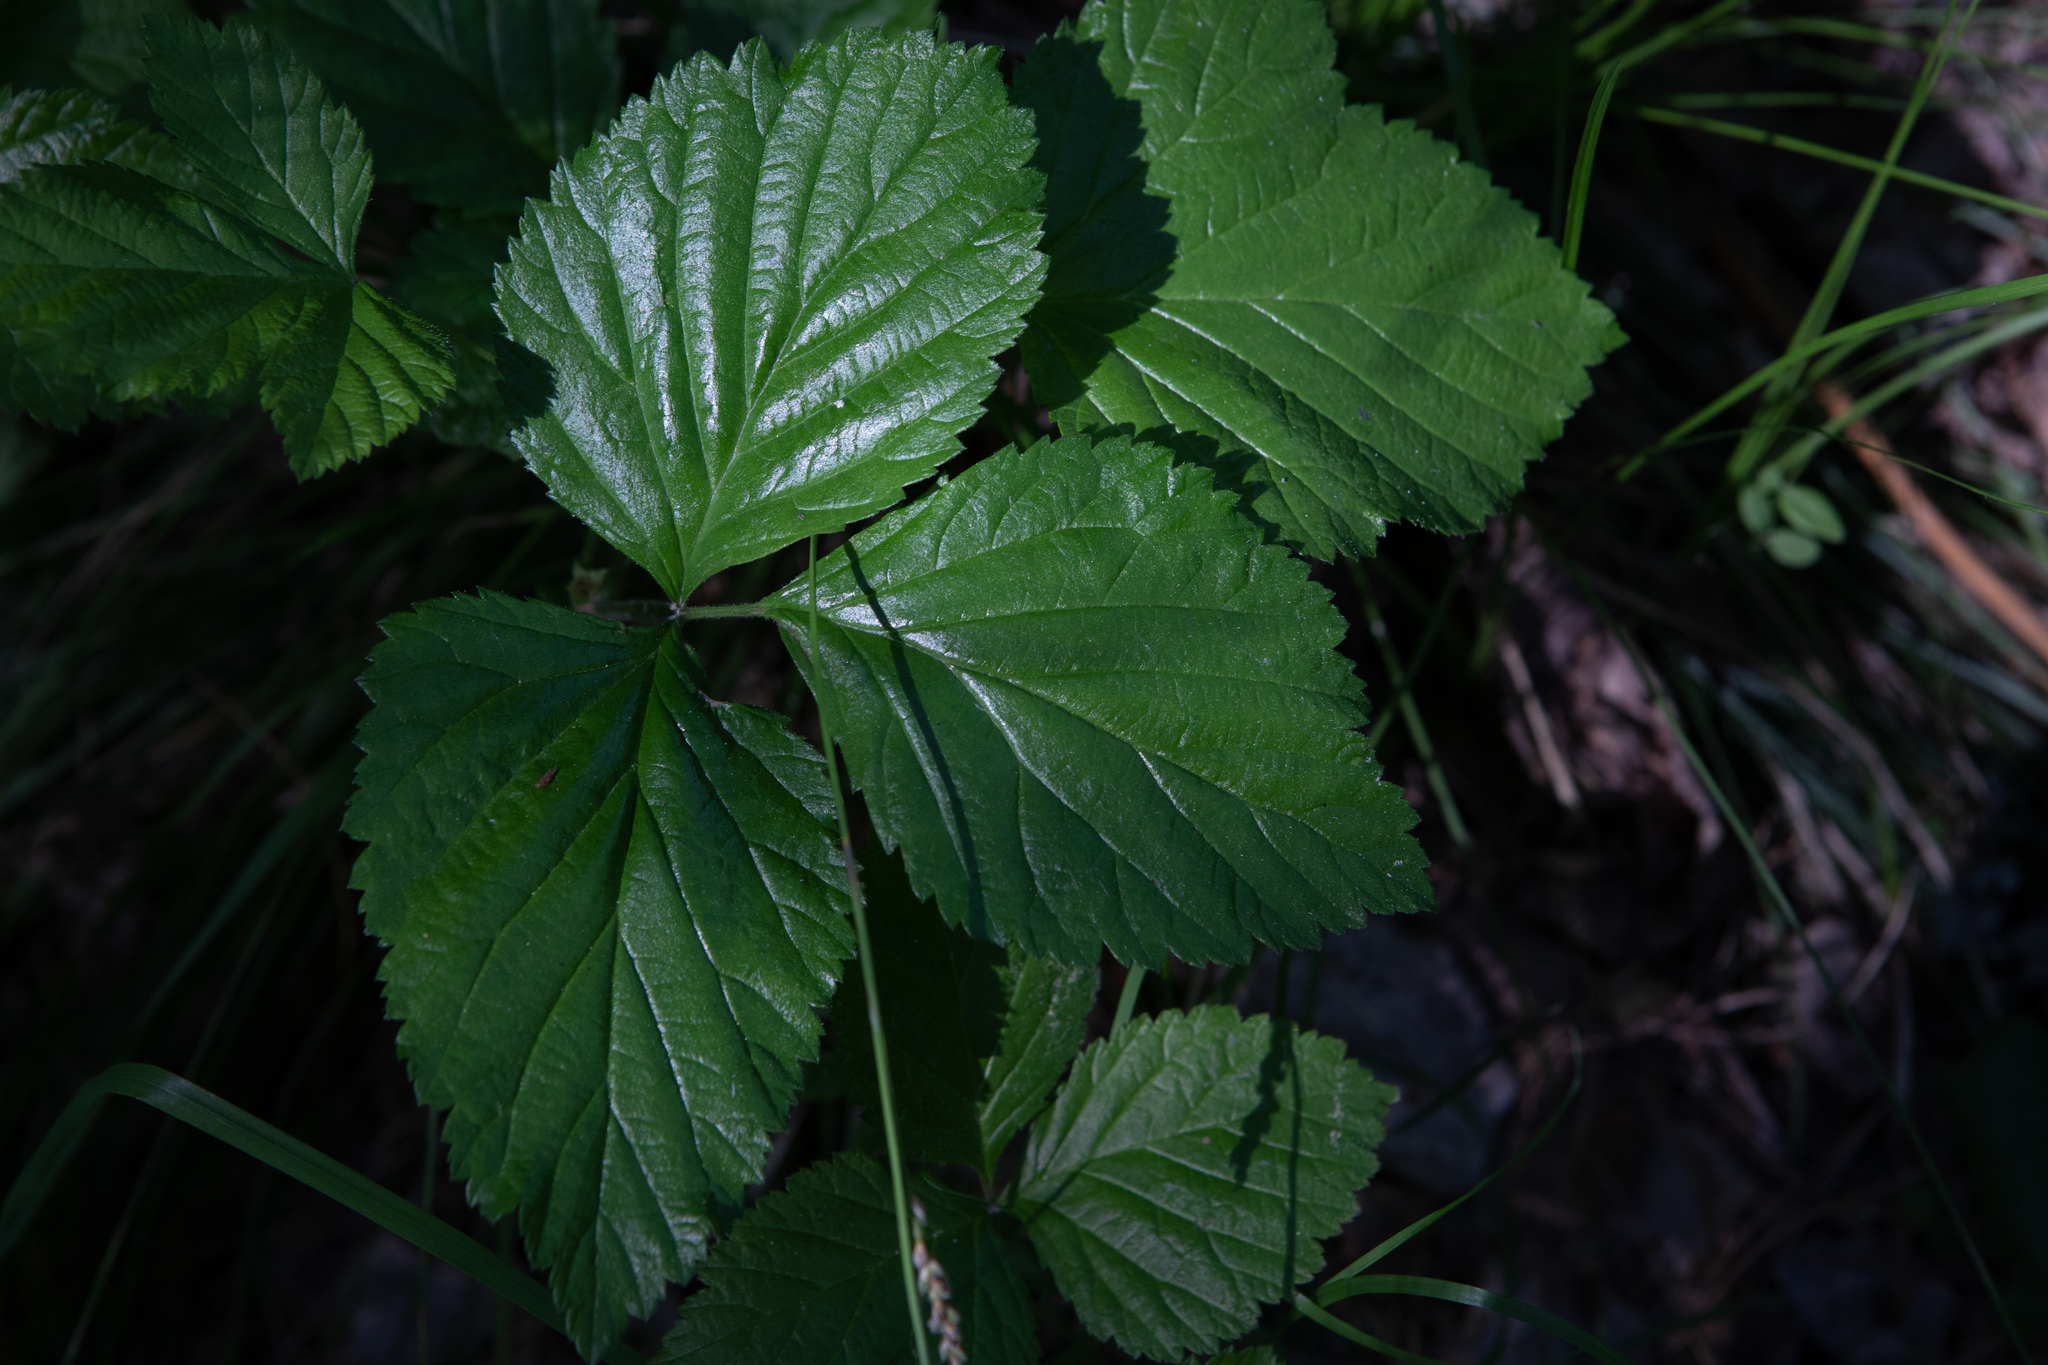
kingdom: Plantae
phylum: Tracheophyta
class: Magnoliopsida
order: Rosales
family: Rosaceae
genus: Rubus
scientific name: Rubus saxatilis
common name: Stone bramble
